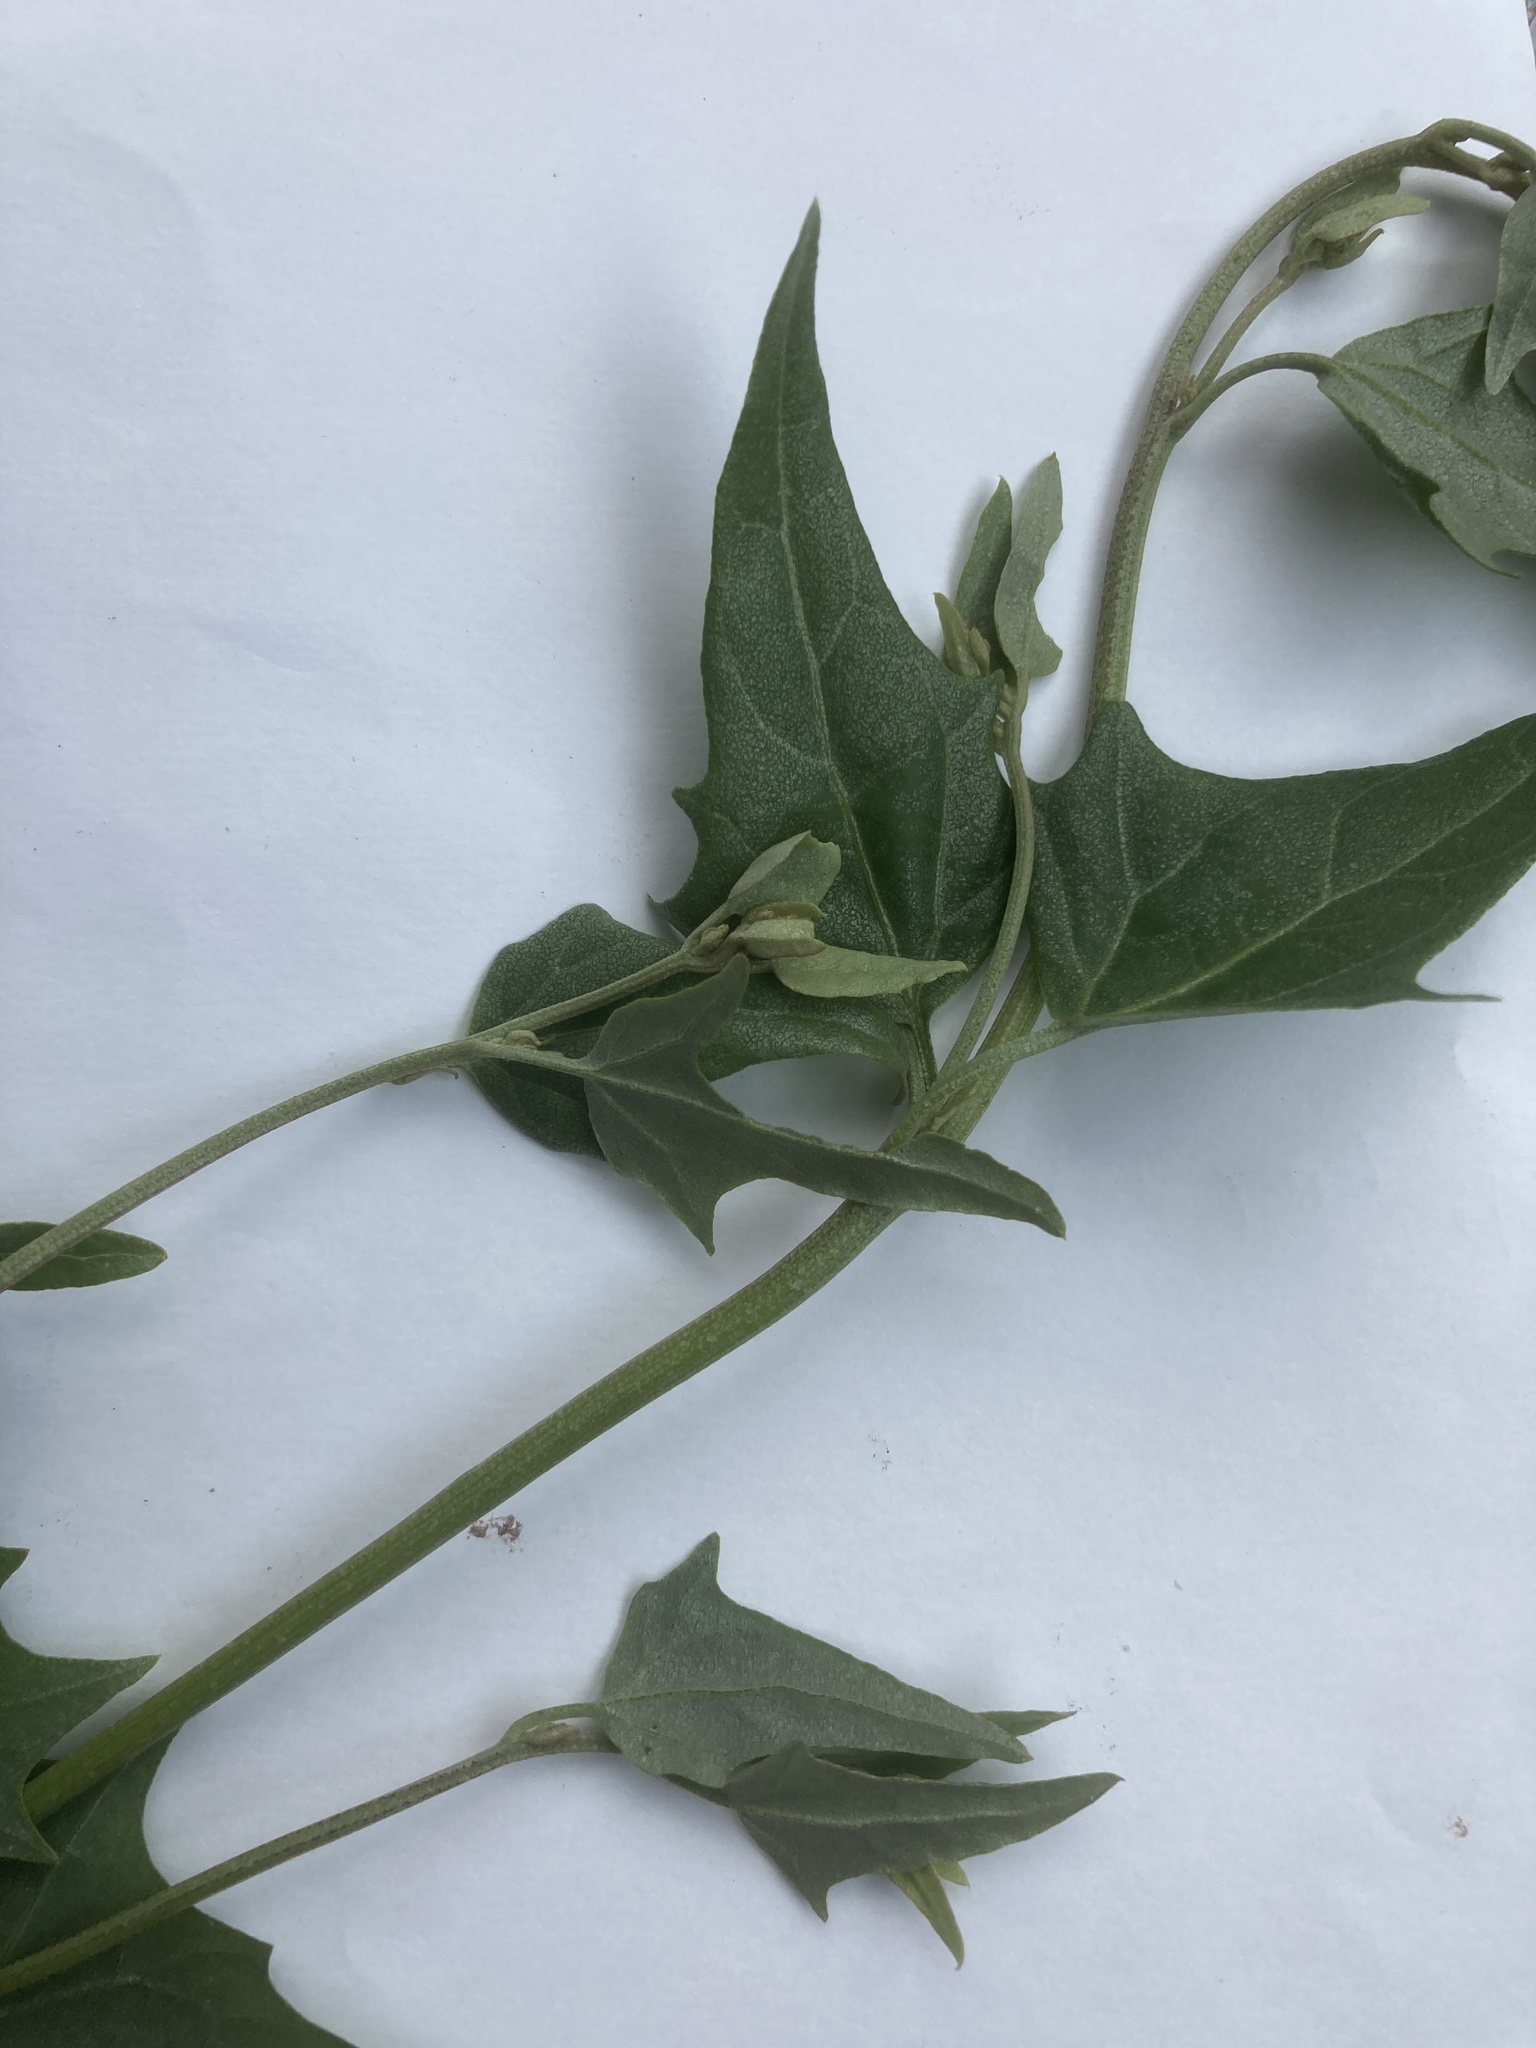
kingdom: Plantae
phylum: Tracheophyta
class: Magnoliopsida
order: Caryophyllales
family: Amaranthaceae
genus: Atriplex
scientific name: Atriplex micrantha
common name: Twoscale saltbush
